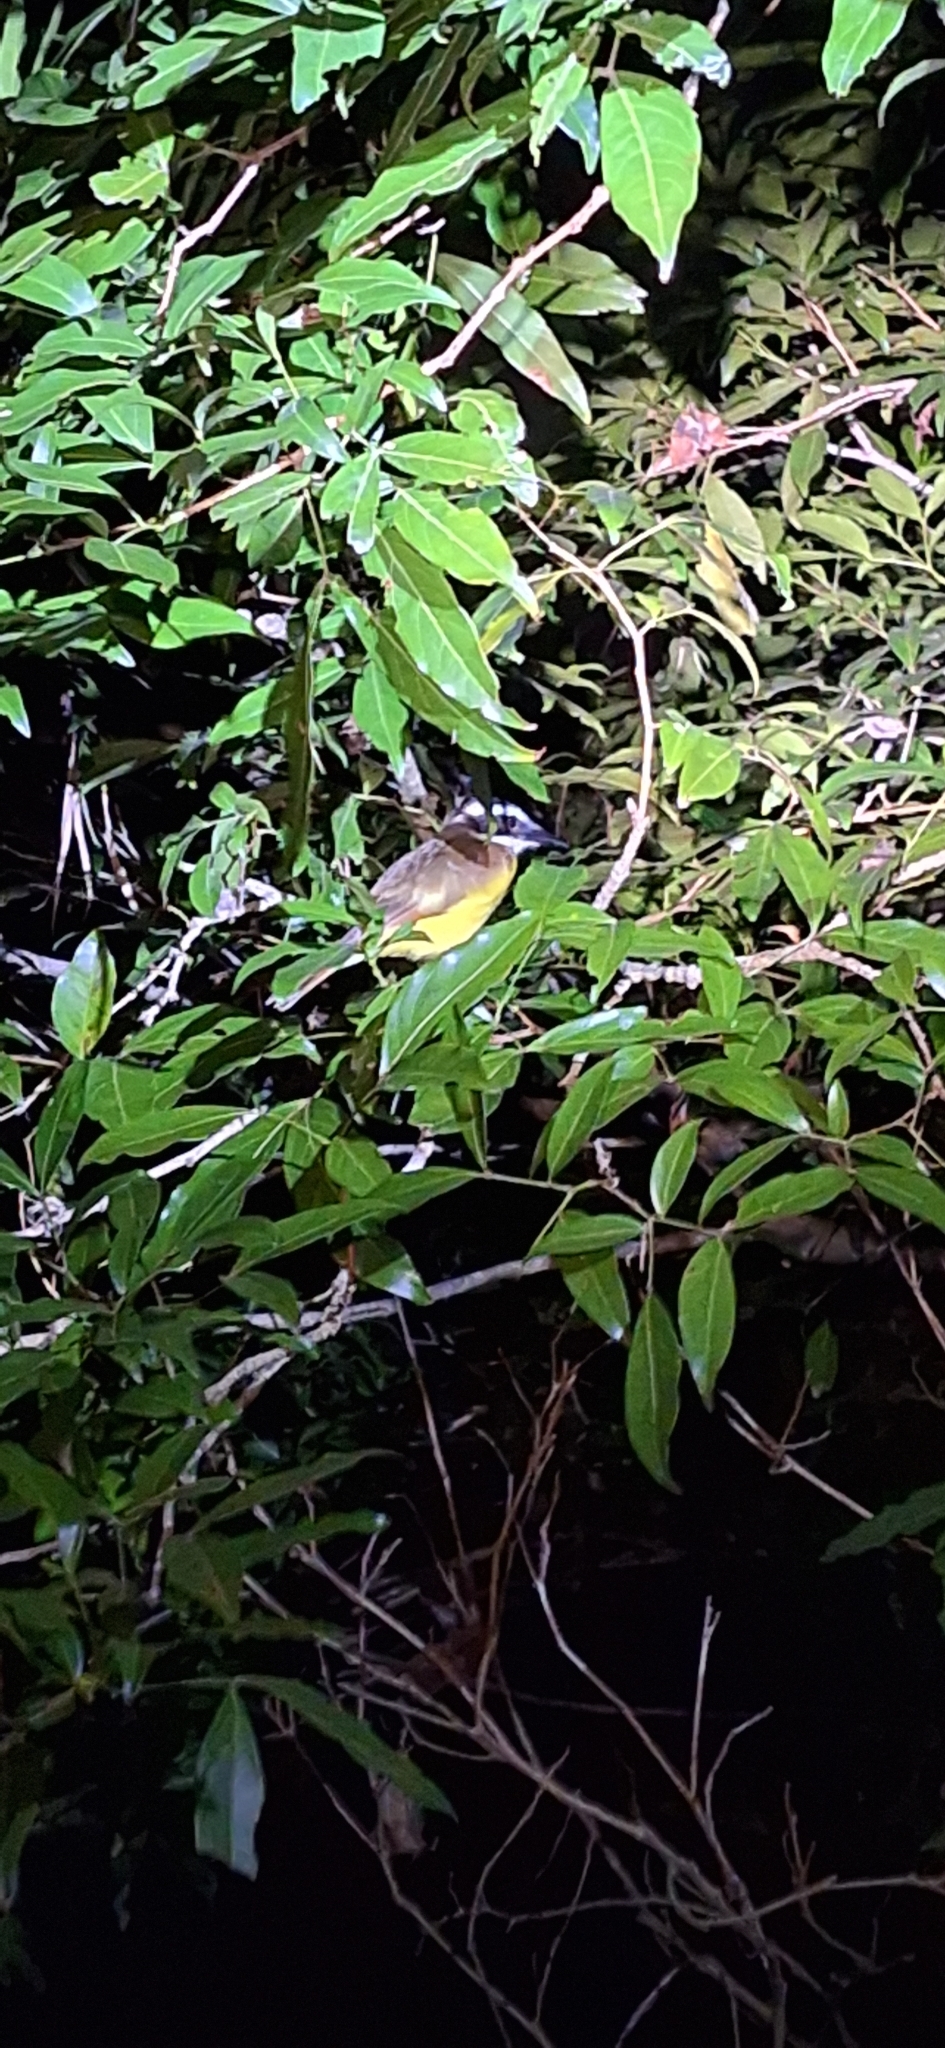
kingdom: Animalia
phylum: Chordata
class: Aves
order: Passeriformes
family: Tyrannidae
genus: Pitangus
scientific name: Pitangus sulphuratus
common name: Great kiskadee
